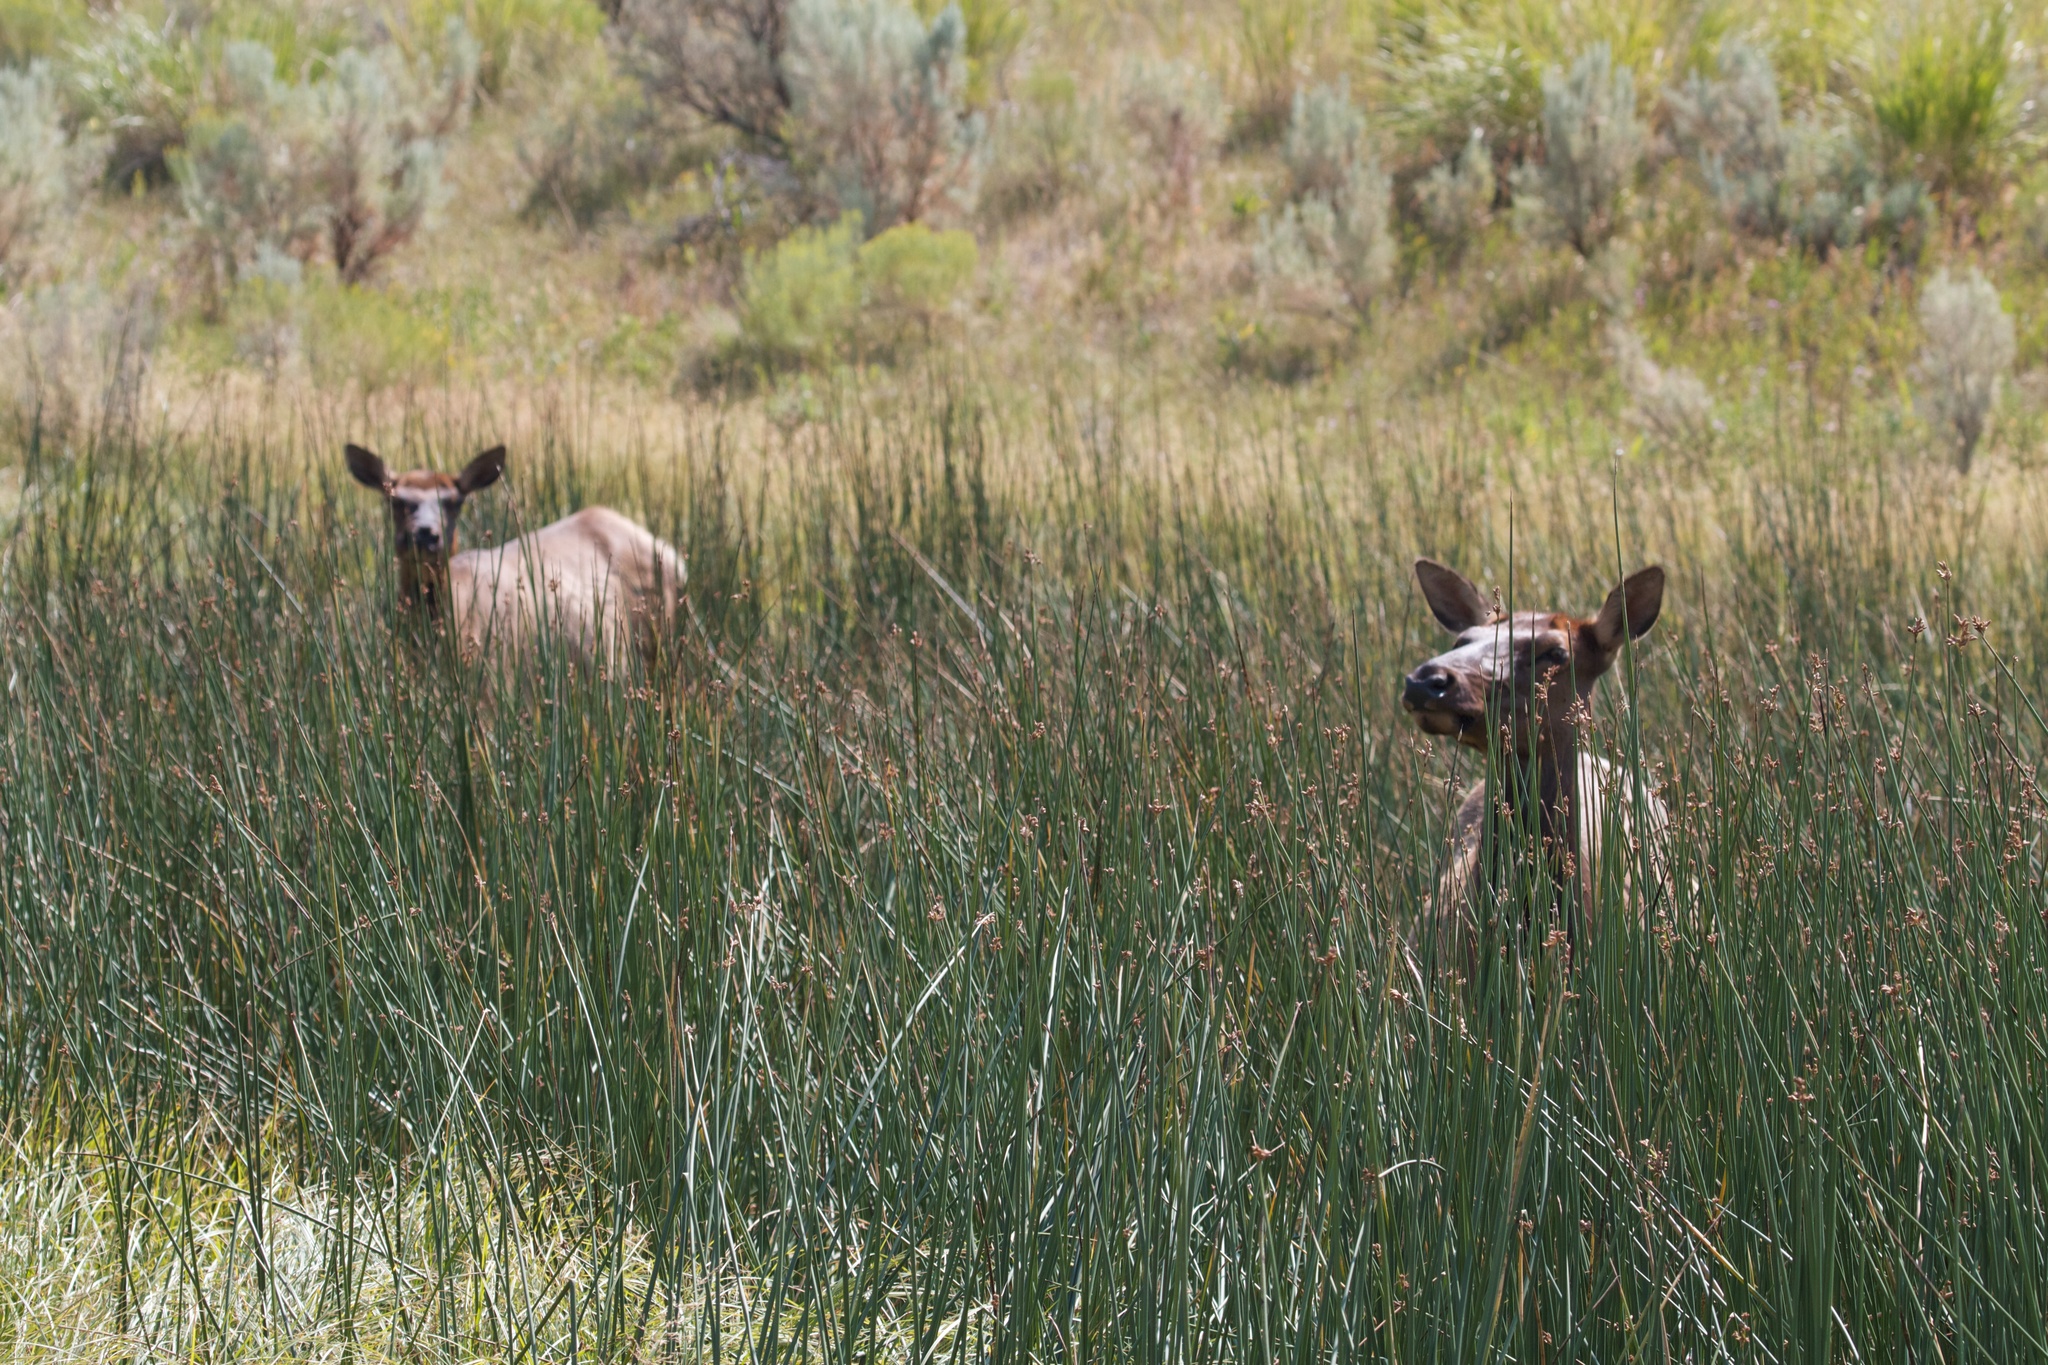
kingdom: Animalia
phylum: Chordata
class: Mammalia
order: Artiodactyla
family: Cervidae
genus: Cervus
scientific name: Cervus elaphus
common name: Red deer
